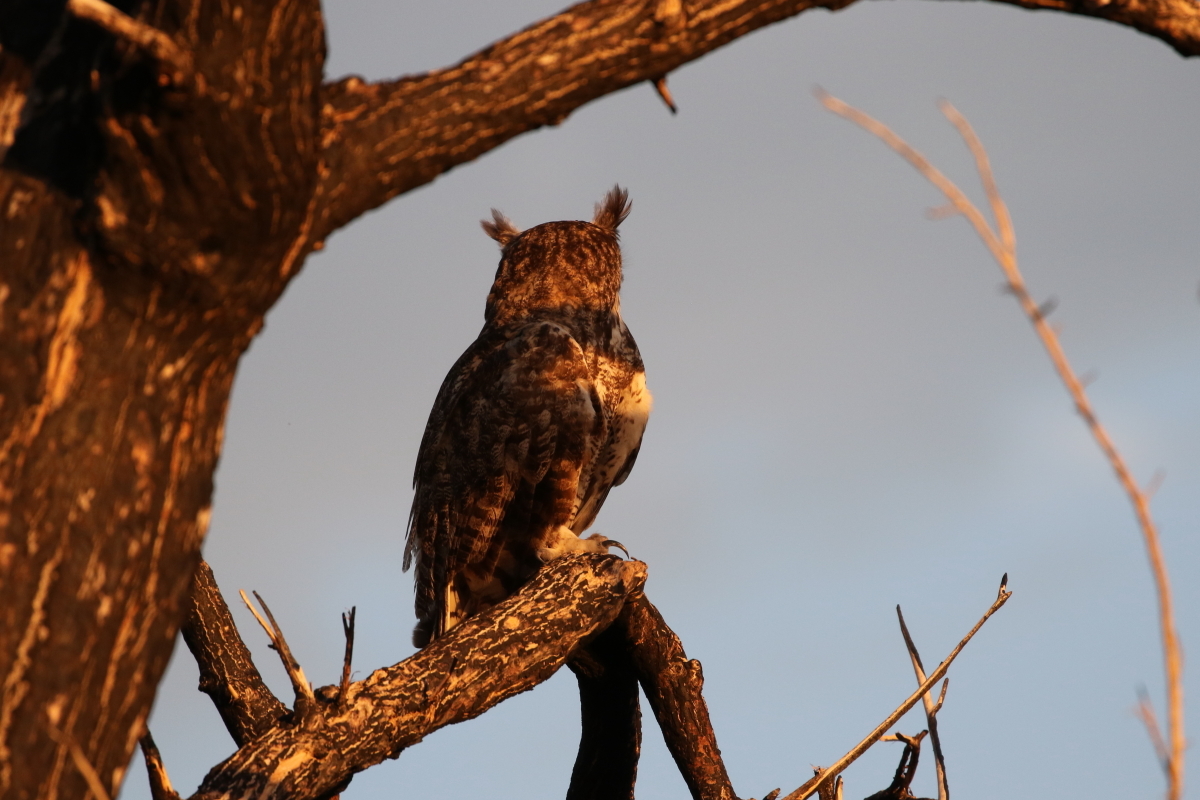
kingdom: Animalia
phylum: Chordata
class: Aves
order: Strigiformes
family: Strigidae
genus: Bubo
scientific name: Bubo virginianus
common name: Great horned owl
